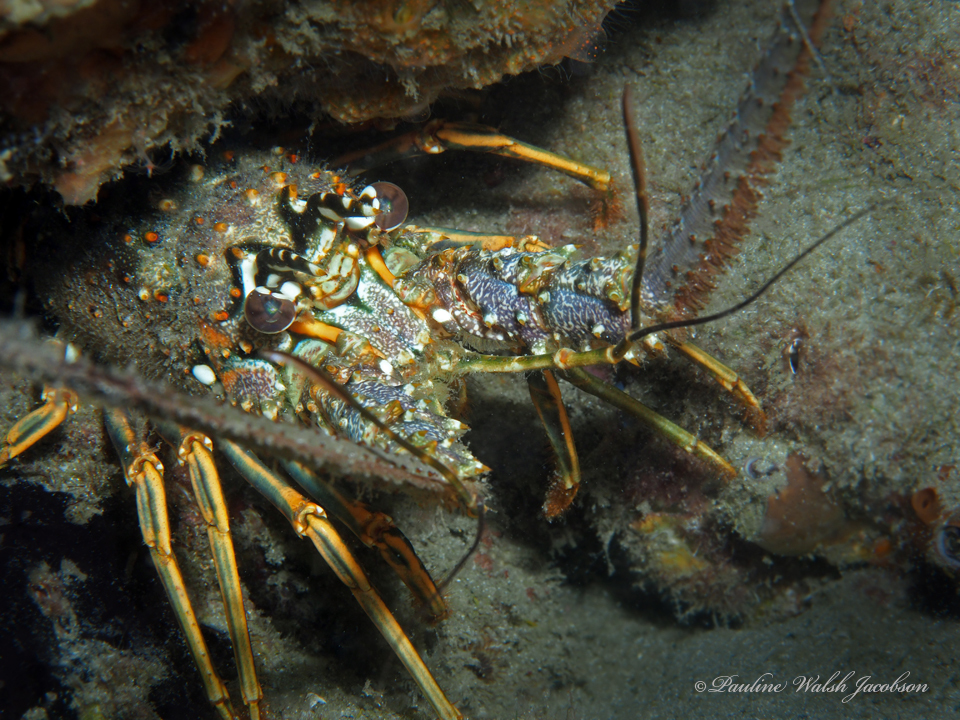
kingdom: Animalia
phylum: Arthropoda
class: Malacostraca
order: Decapoda
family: Palinuridae
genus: Panulirus
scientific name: Panulirus argus
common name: Caribbean spiny lobster
